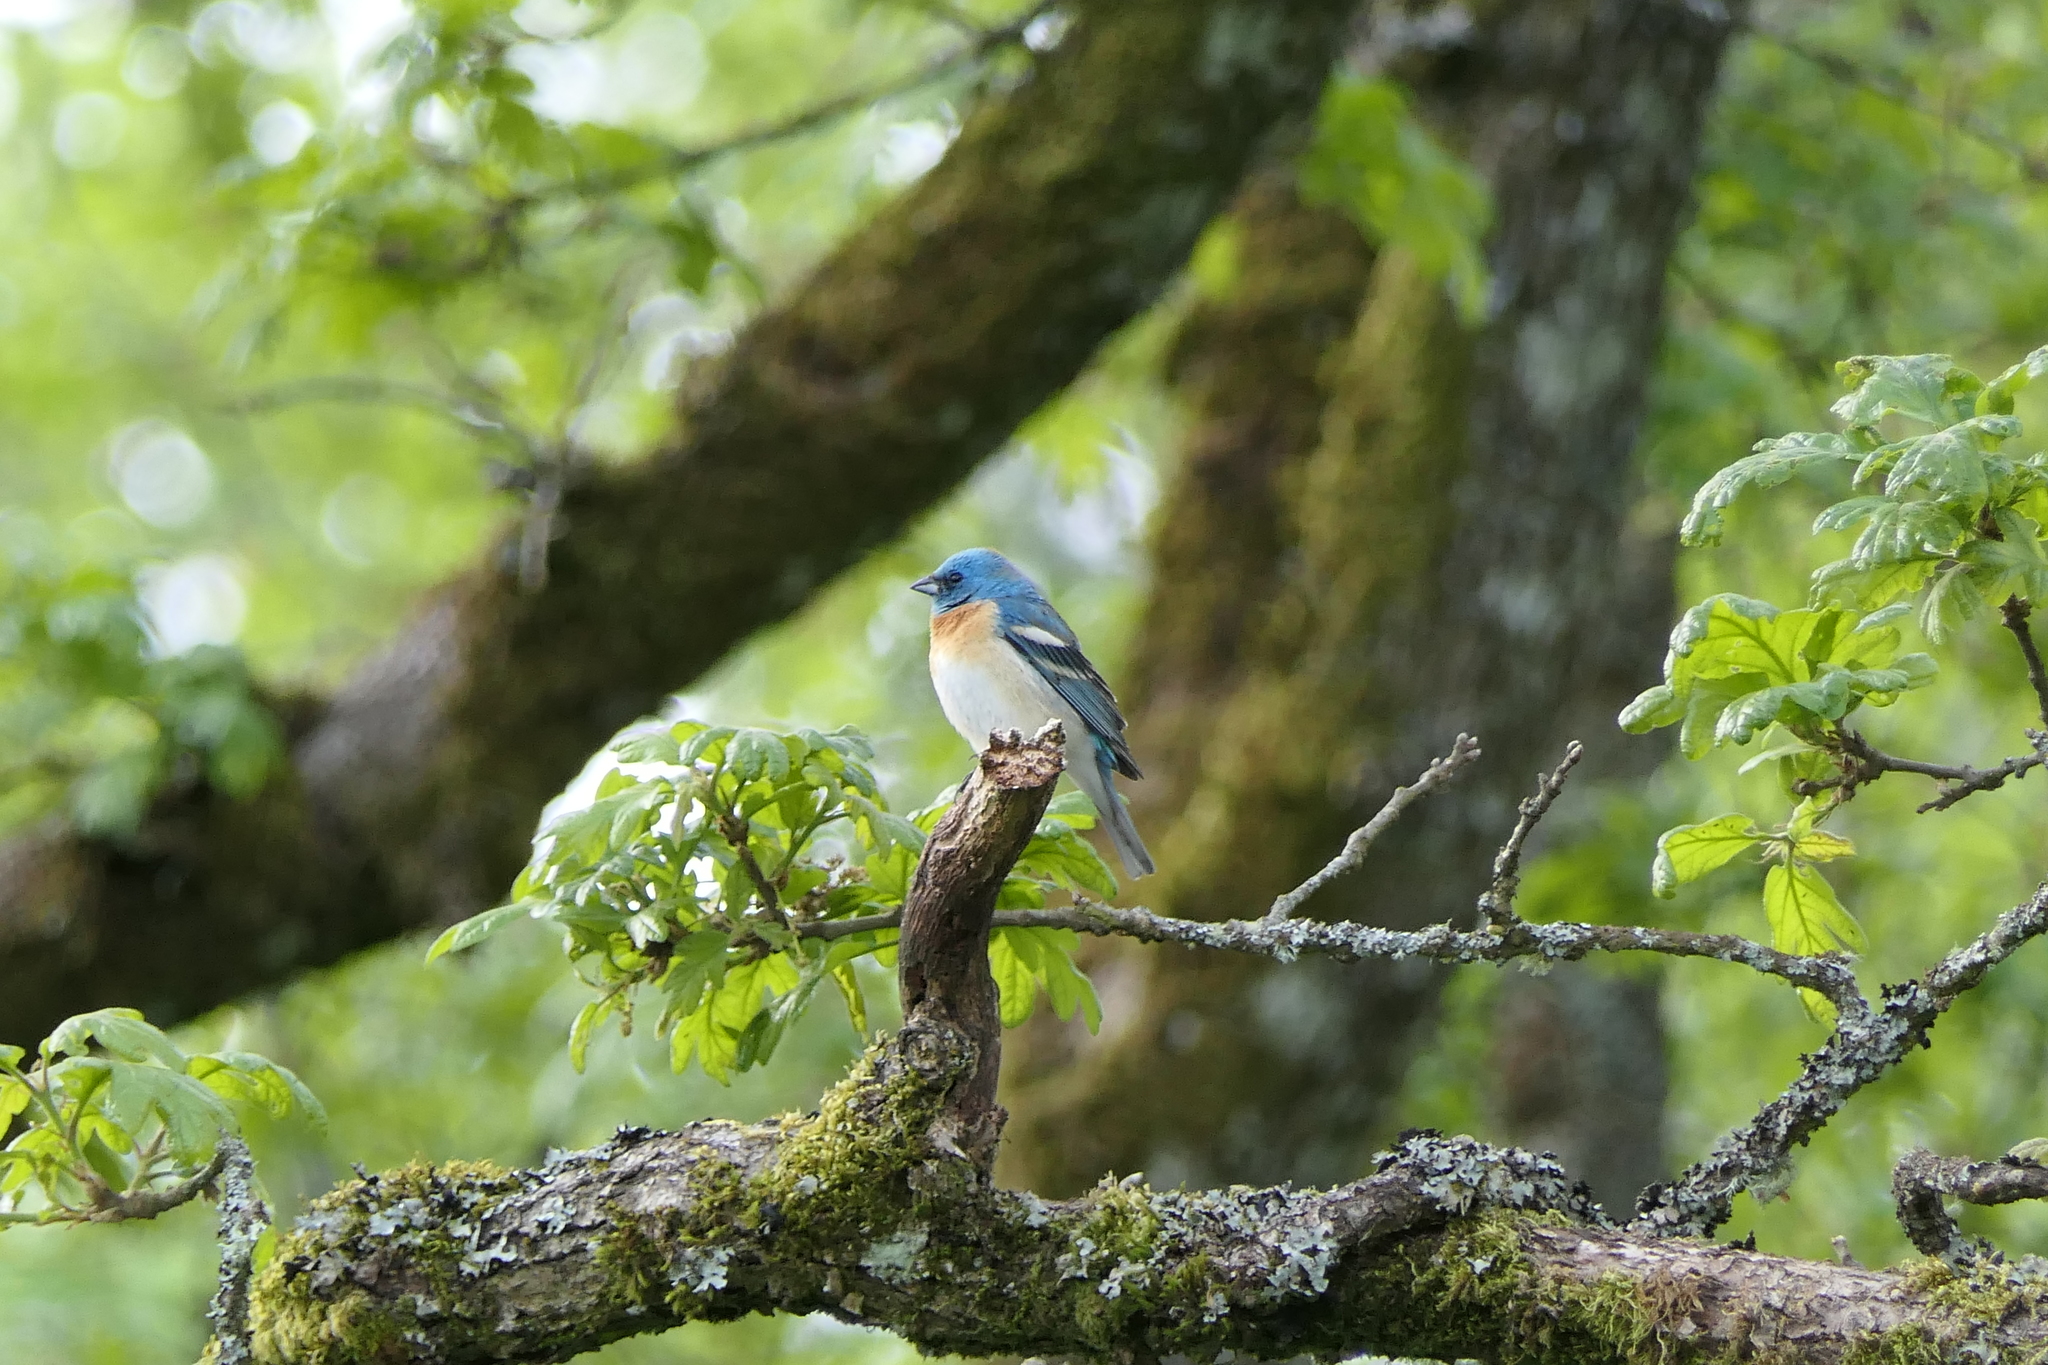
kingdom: Animalia
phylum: Chordata
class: Aves
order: Passeriformes
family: Cardinalidae
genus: Passerina
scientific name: Passerina amoena
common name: Lazuli bunting
